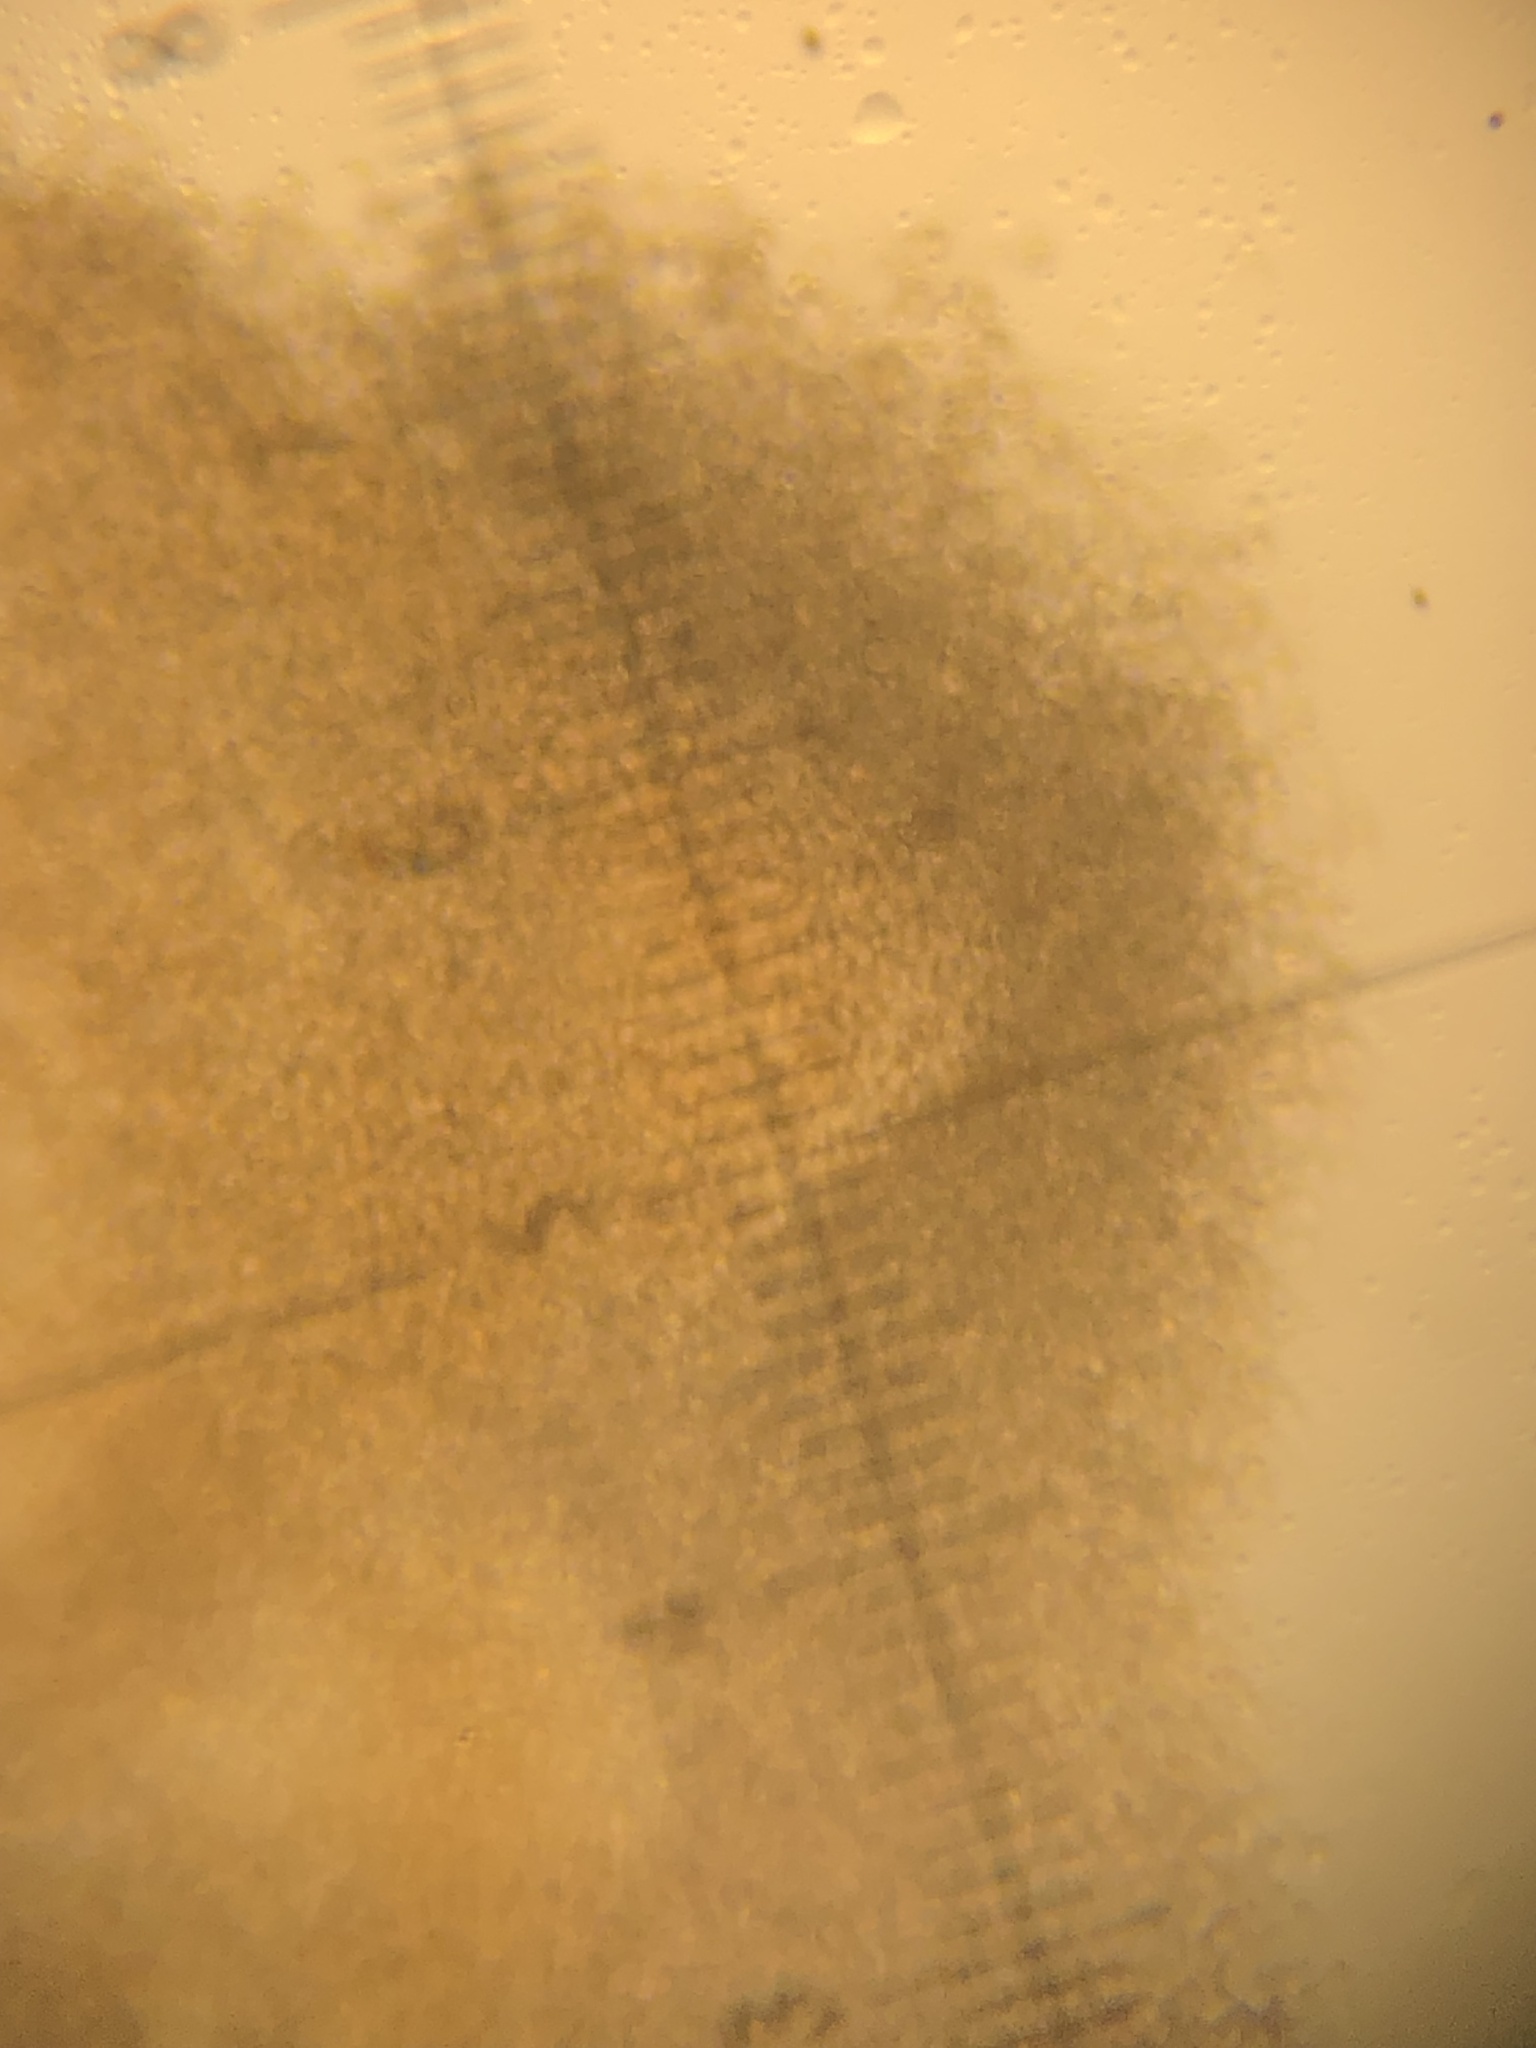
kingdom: Fungi
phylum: Ascomycota
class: Sordariomycetes
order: Hypocreales
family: Hypocreaceae
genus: Hypomyces
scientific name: Hypomyces cervinus
